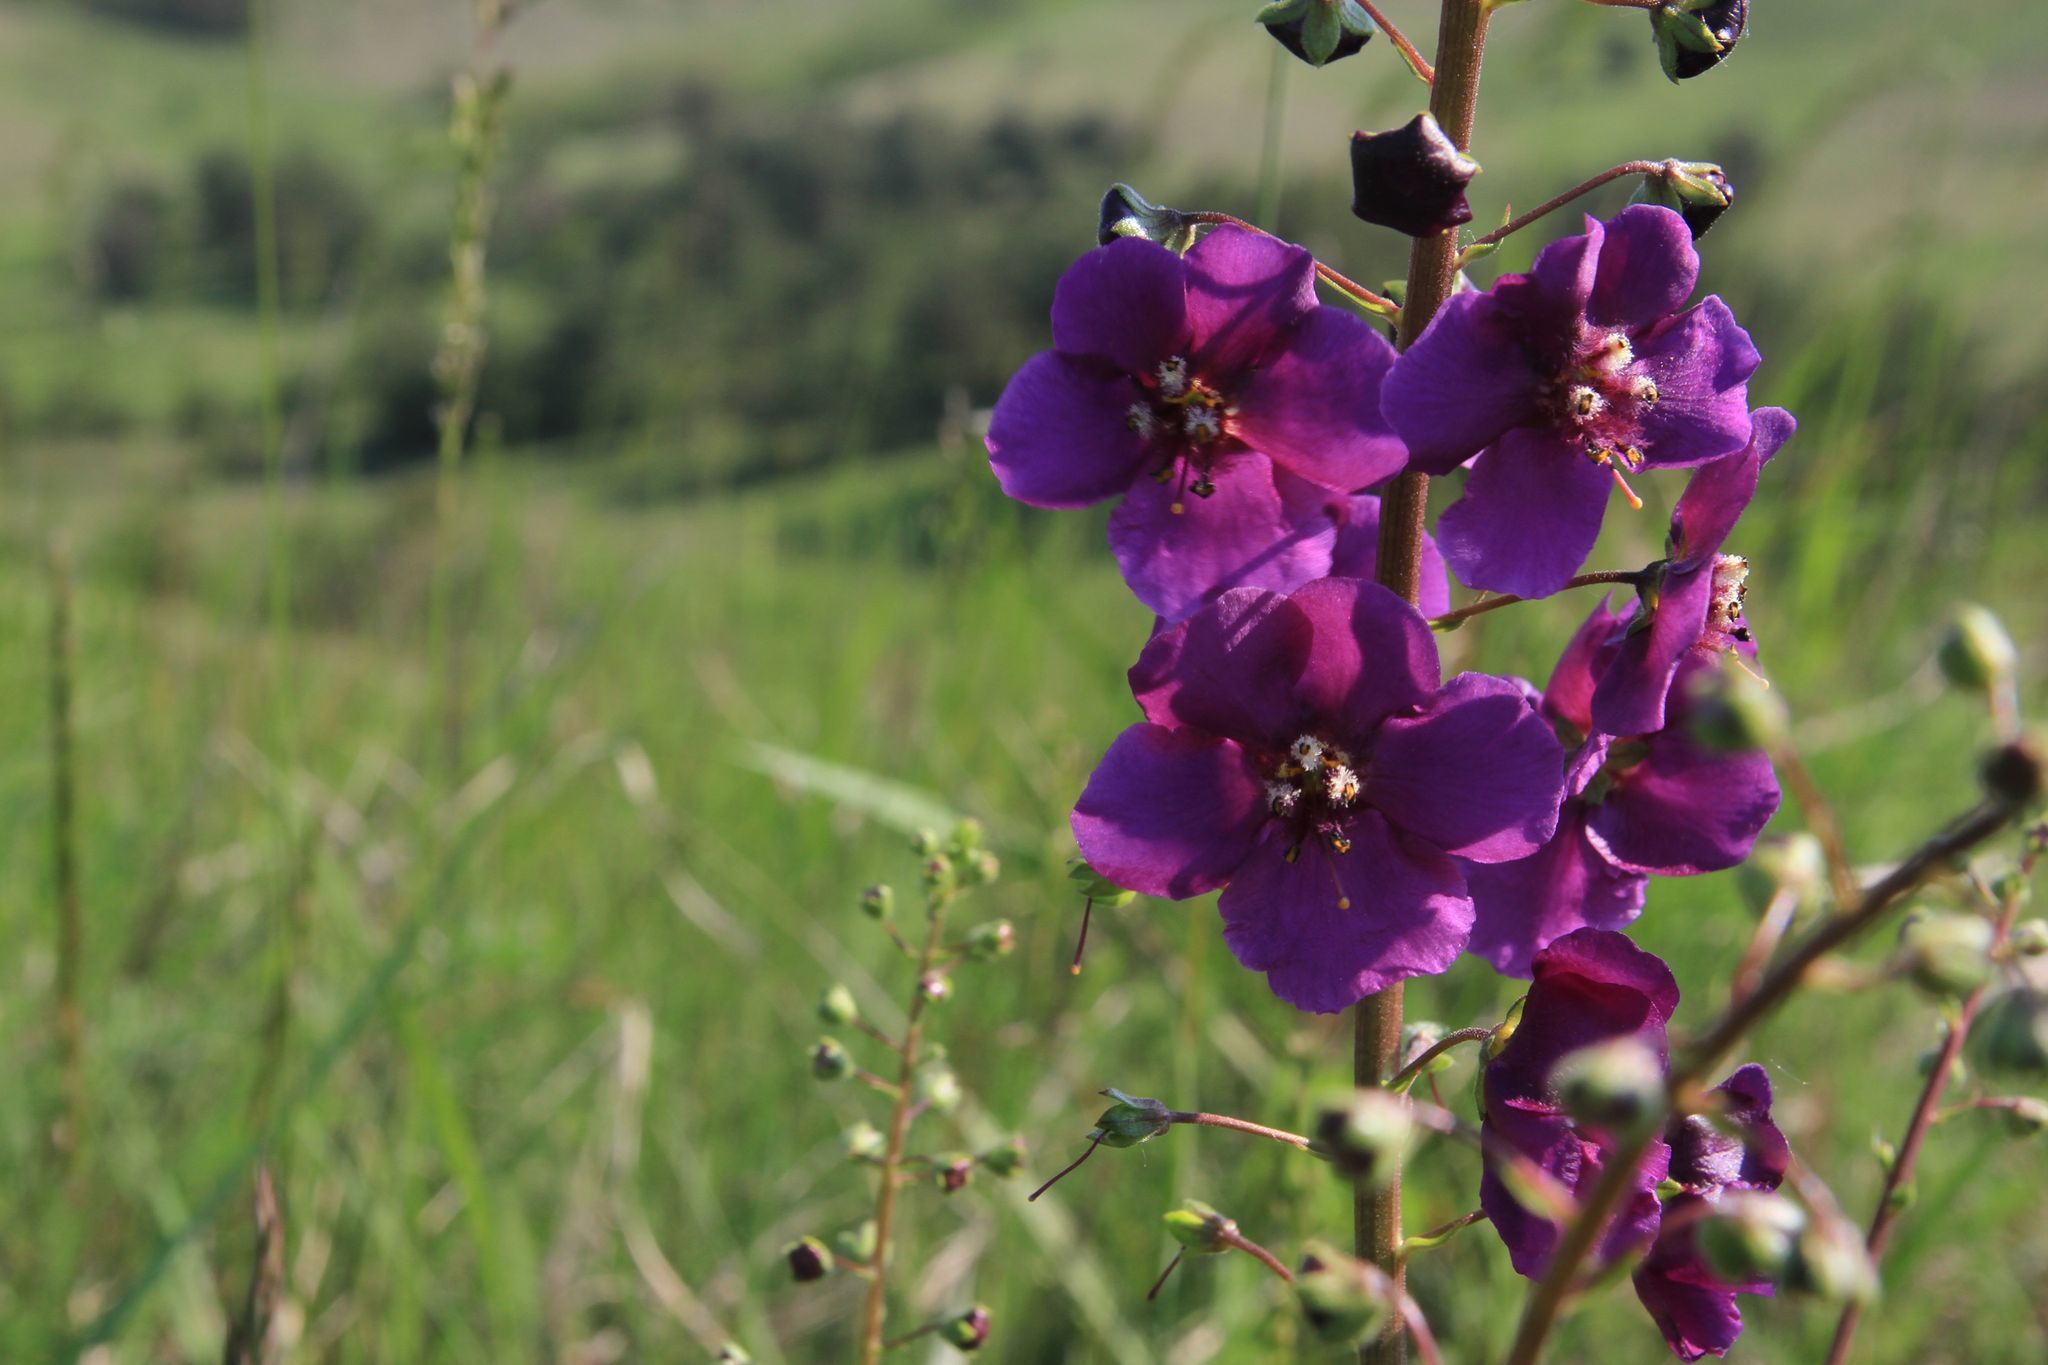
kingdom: Plantae
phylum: Tracheophyta
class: Magnoliopsida
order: Lamiales
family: Scrophulariaceae
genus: Verbascum
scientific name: Verbascum phoeniceum
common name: Purple mullein
